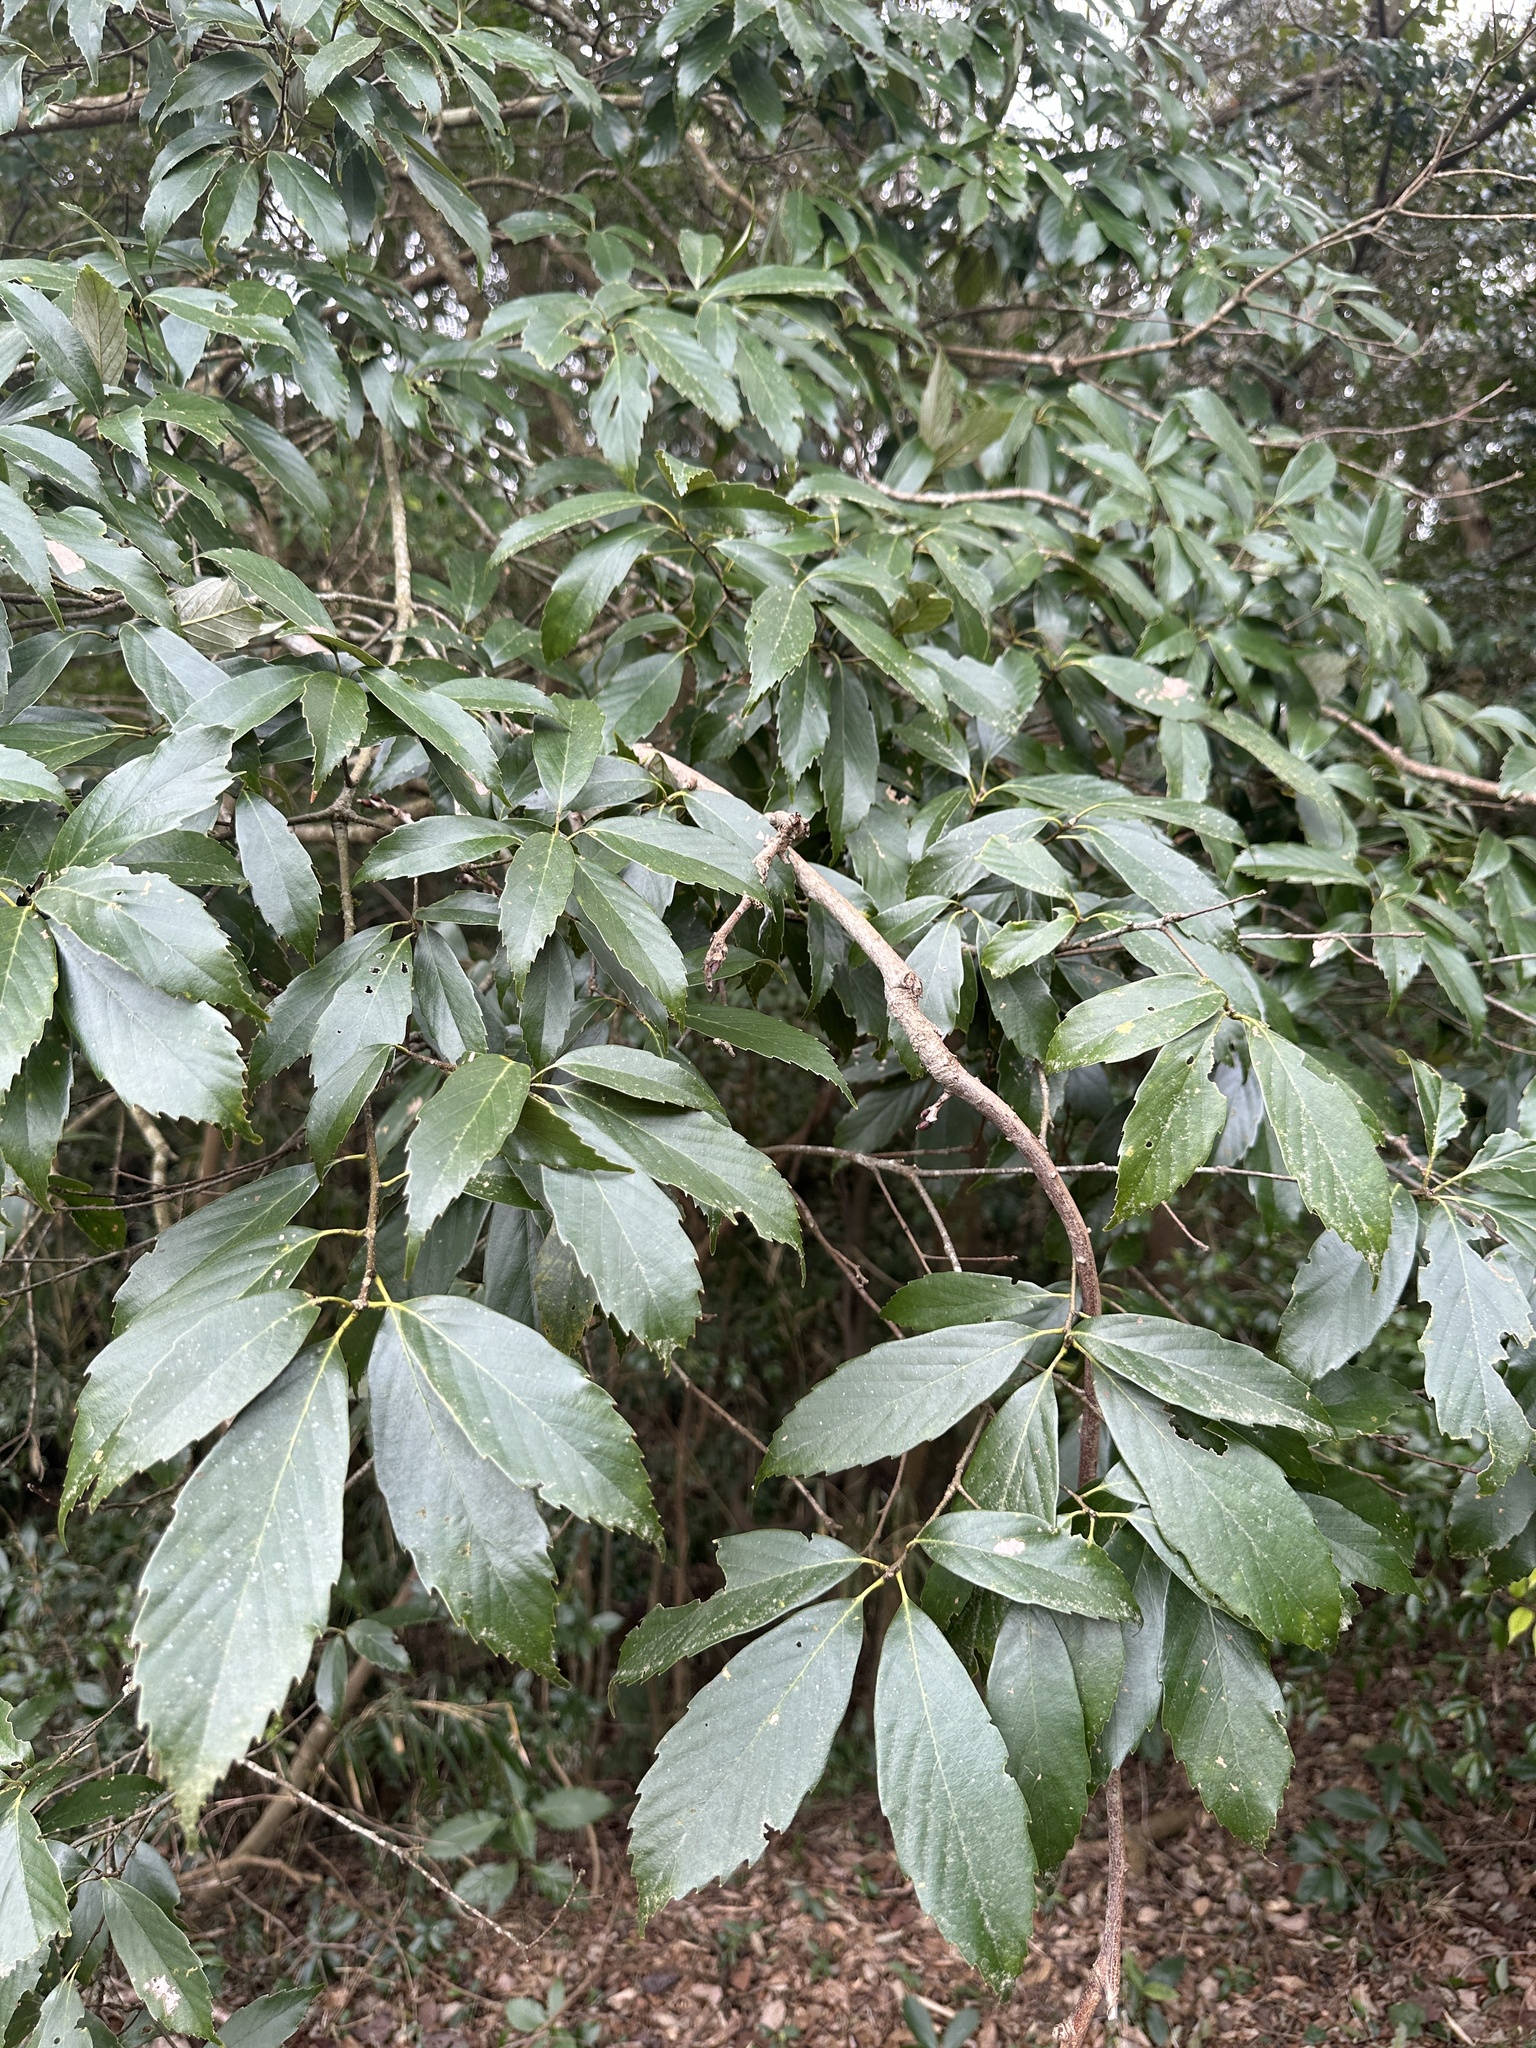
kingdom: Plantae
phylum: Tracheophyta
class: Magnoliopsida
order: Fagales
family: Fagaceae
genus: Quercus
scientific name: Quercus glauca
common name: Ring-cup oak
